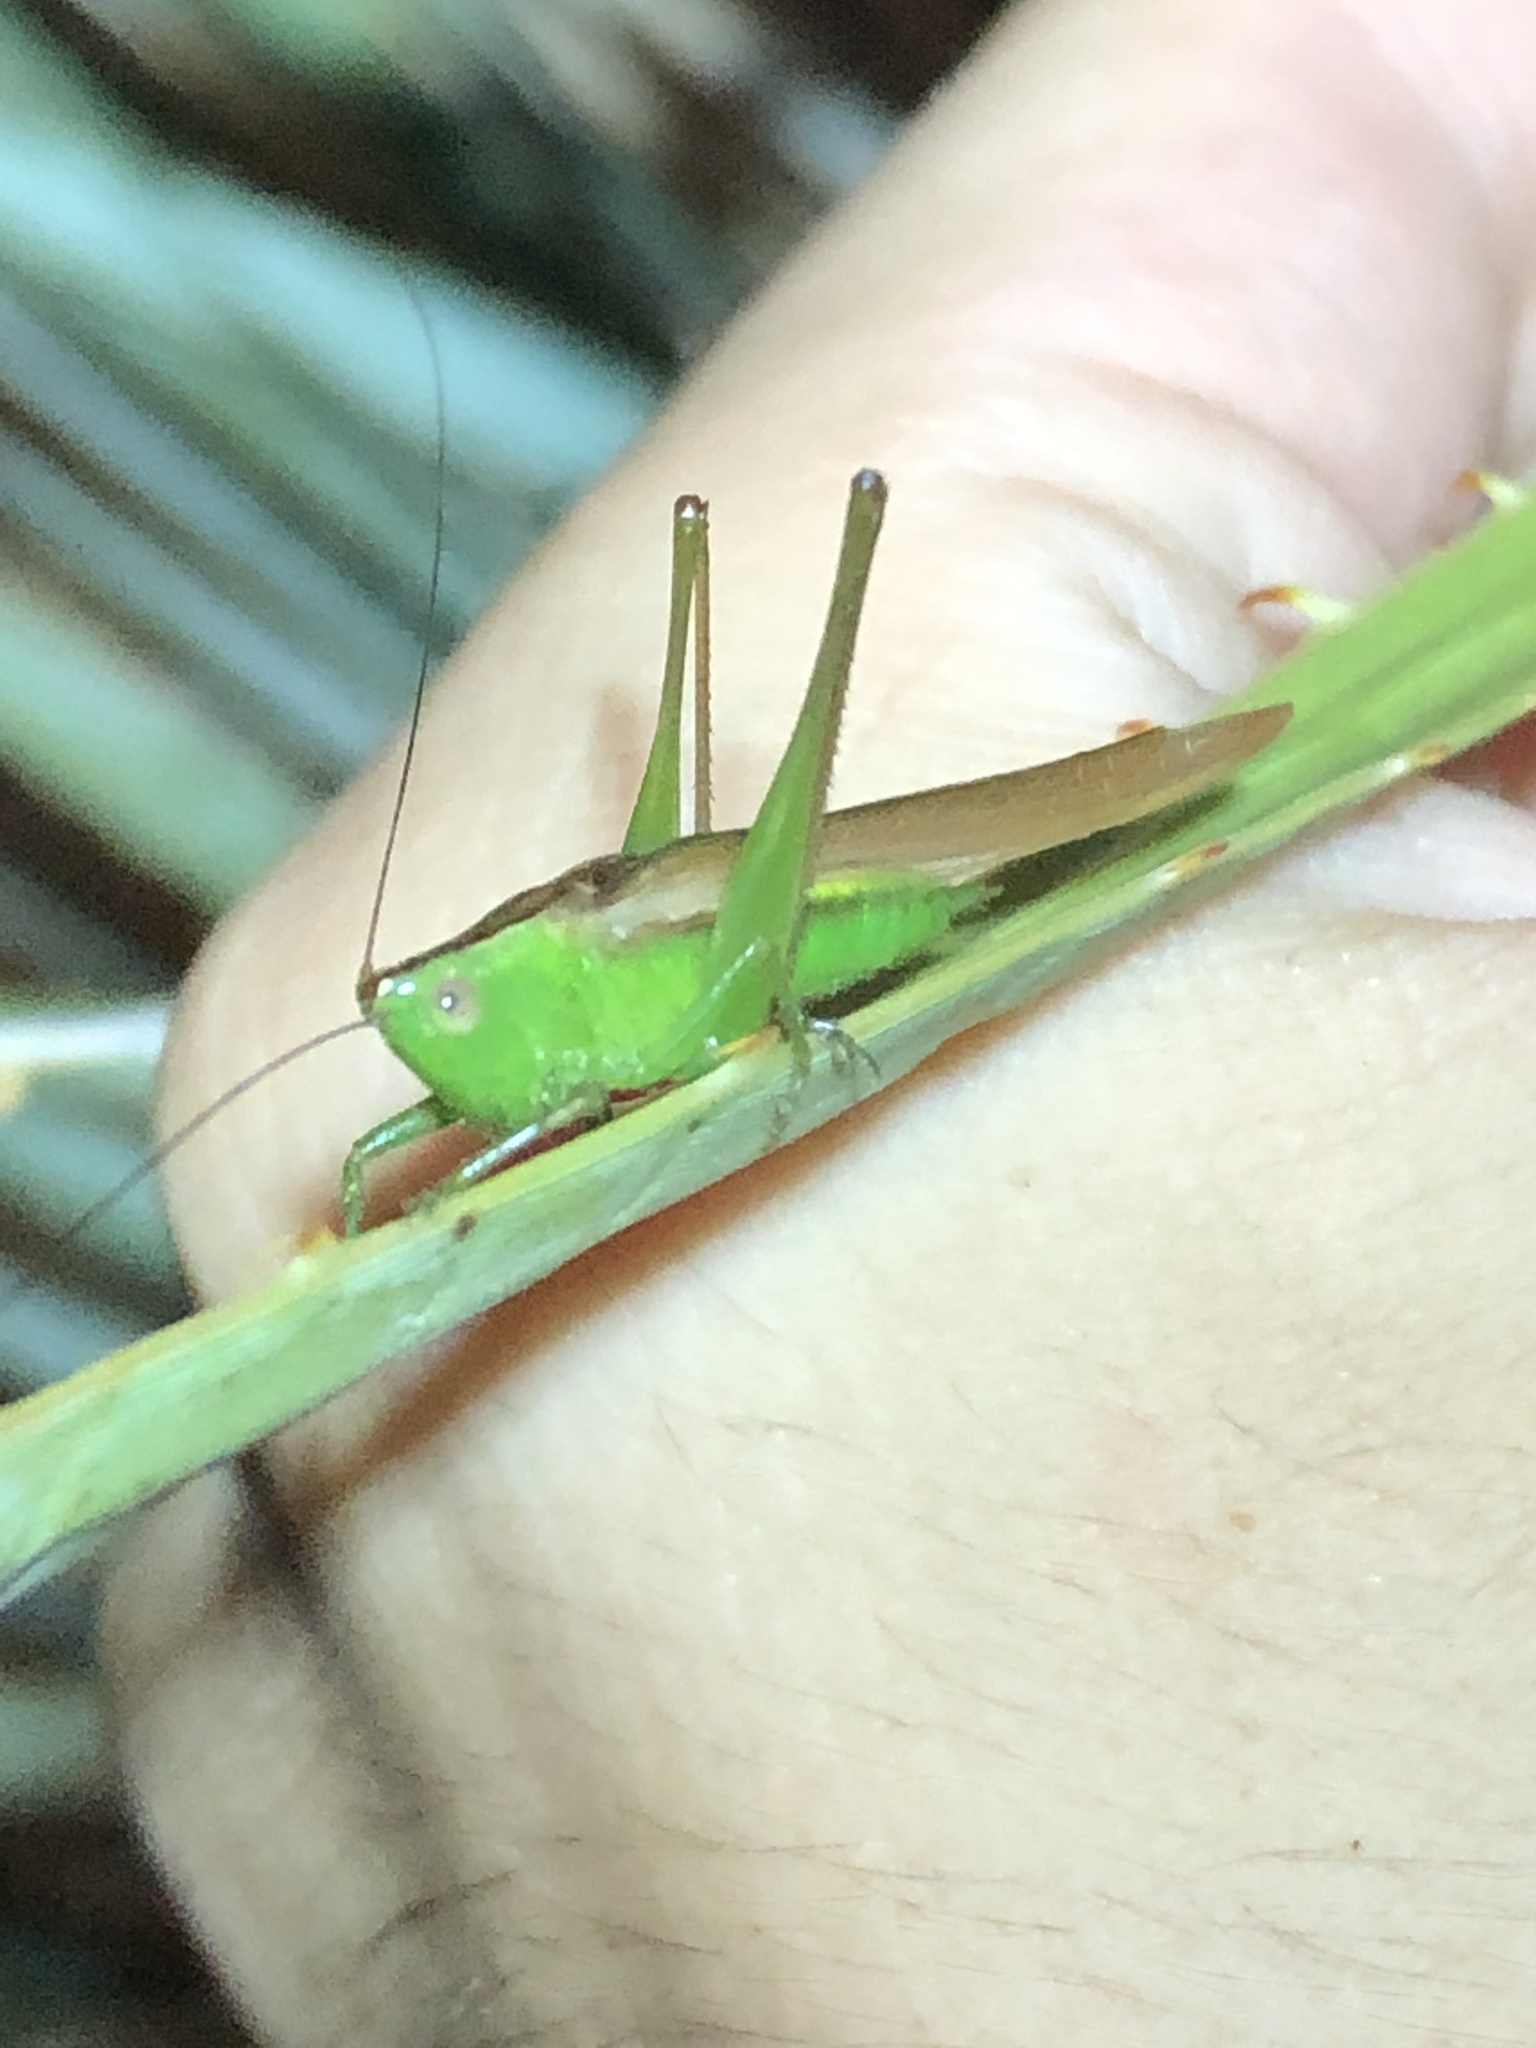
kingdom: Animalia
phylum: Arthropoda
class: Insecta
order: Orthoptera
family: Tettigoniidae
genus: Conocephalus
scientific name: Conocephalus fasciatus
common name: Slender meadow katydid
